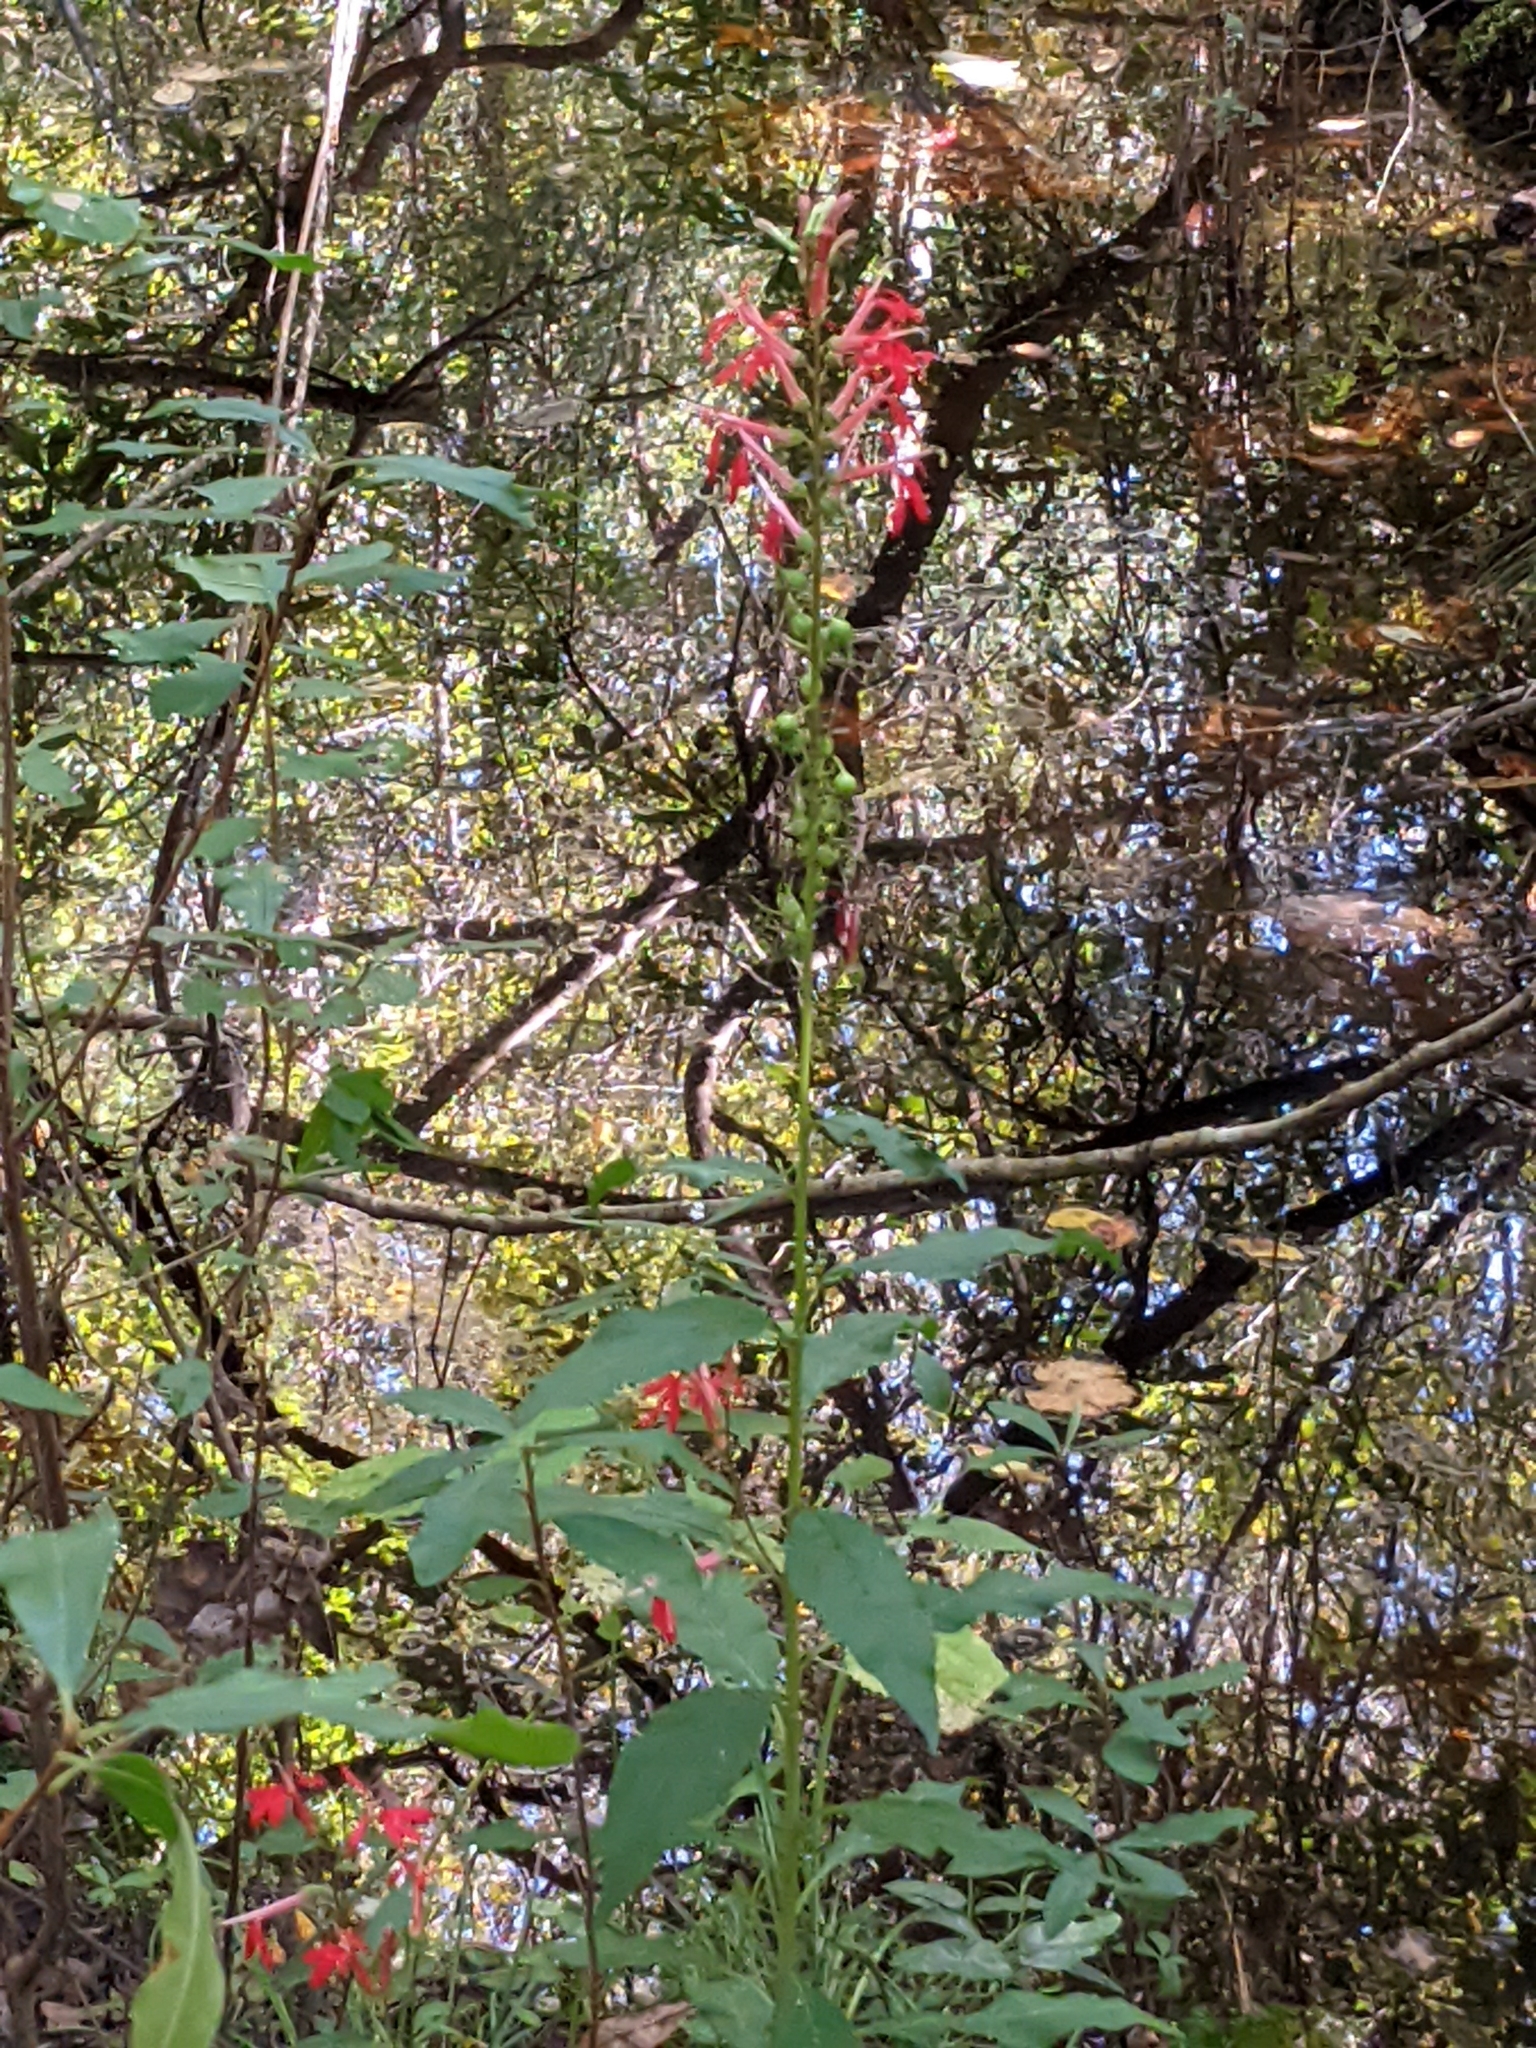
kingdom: Plantae
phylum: Tracheophyta
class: Magnoliopsida
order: Asterales
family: Campanulaceae
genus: Lobelia
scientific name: Lobelia cardinalis
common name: Cardinal flower
